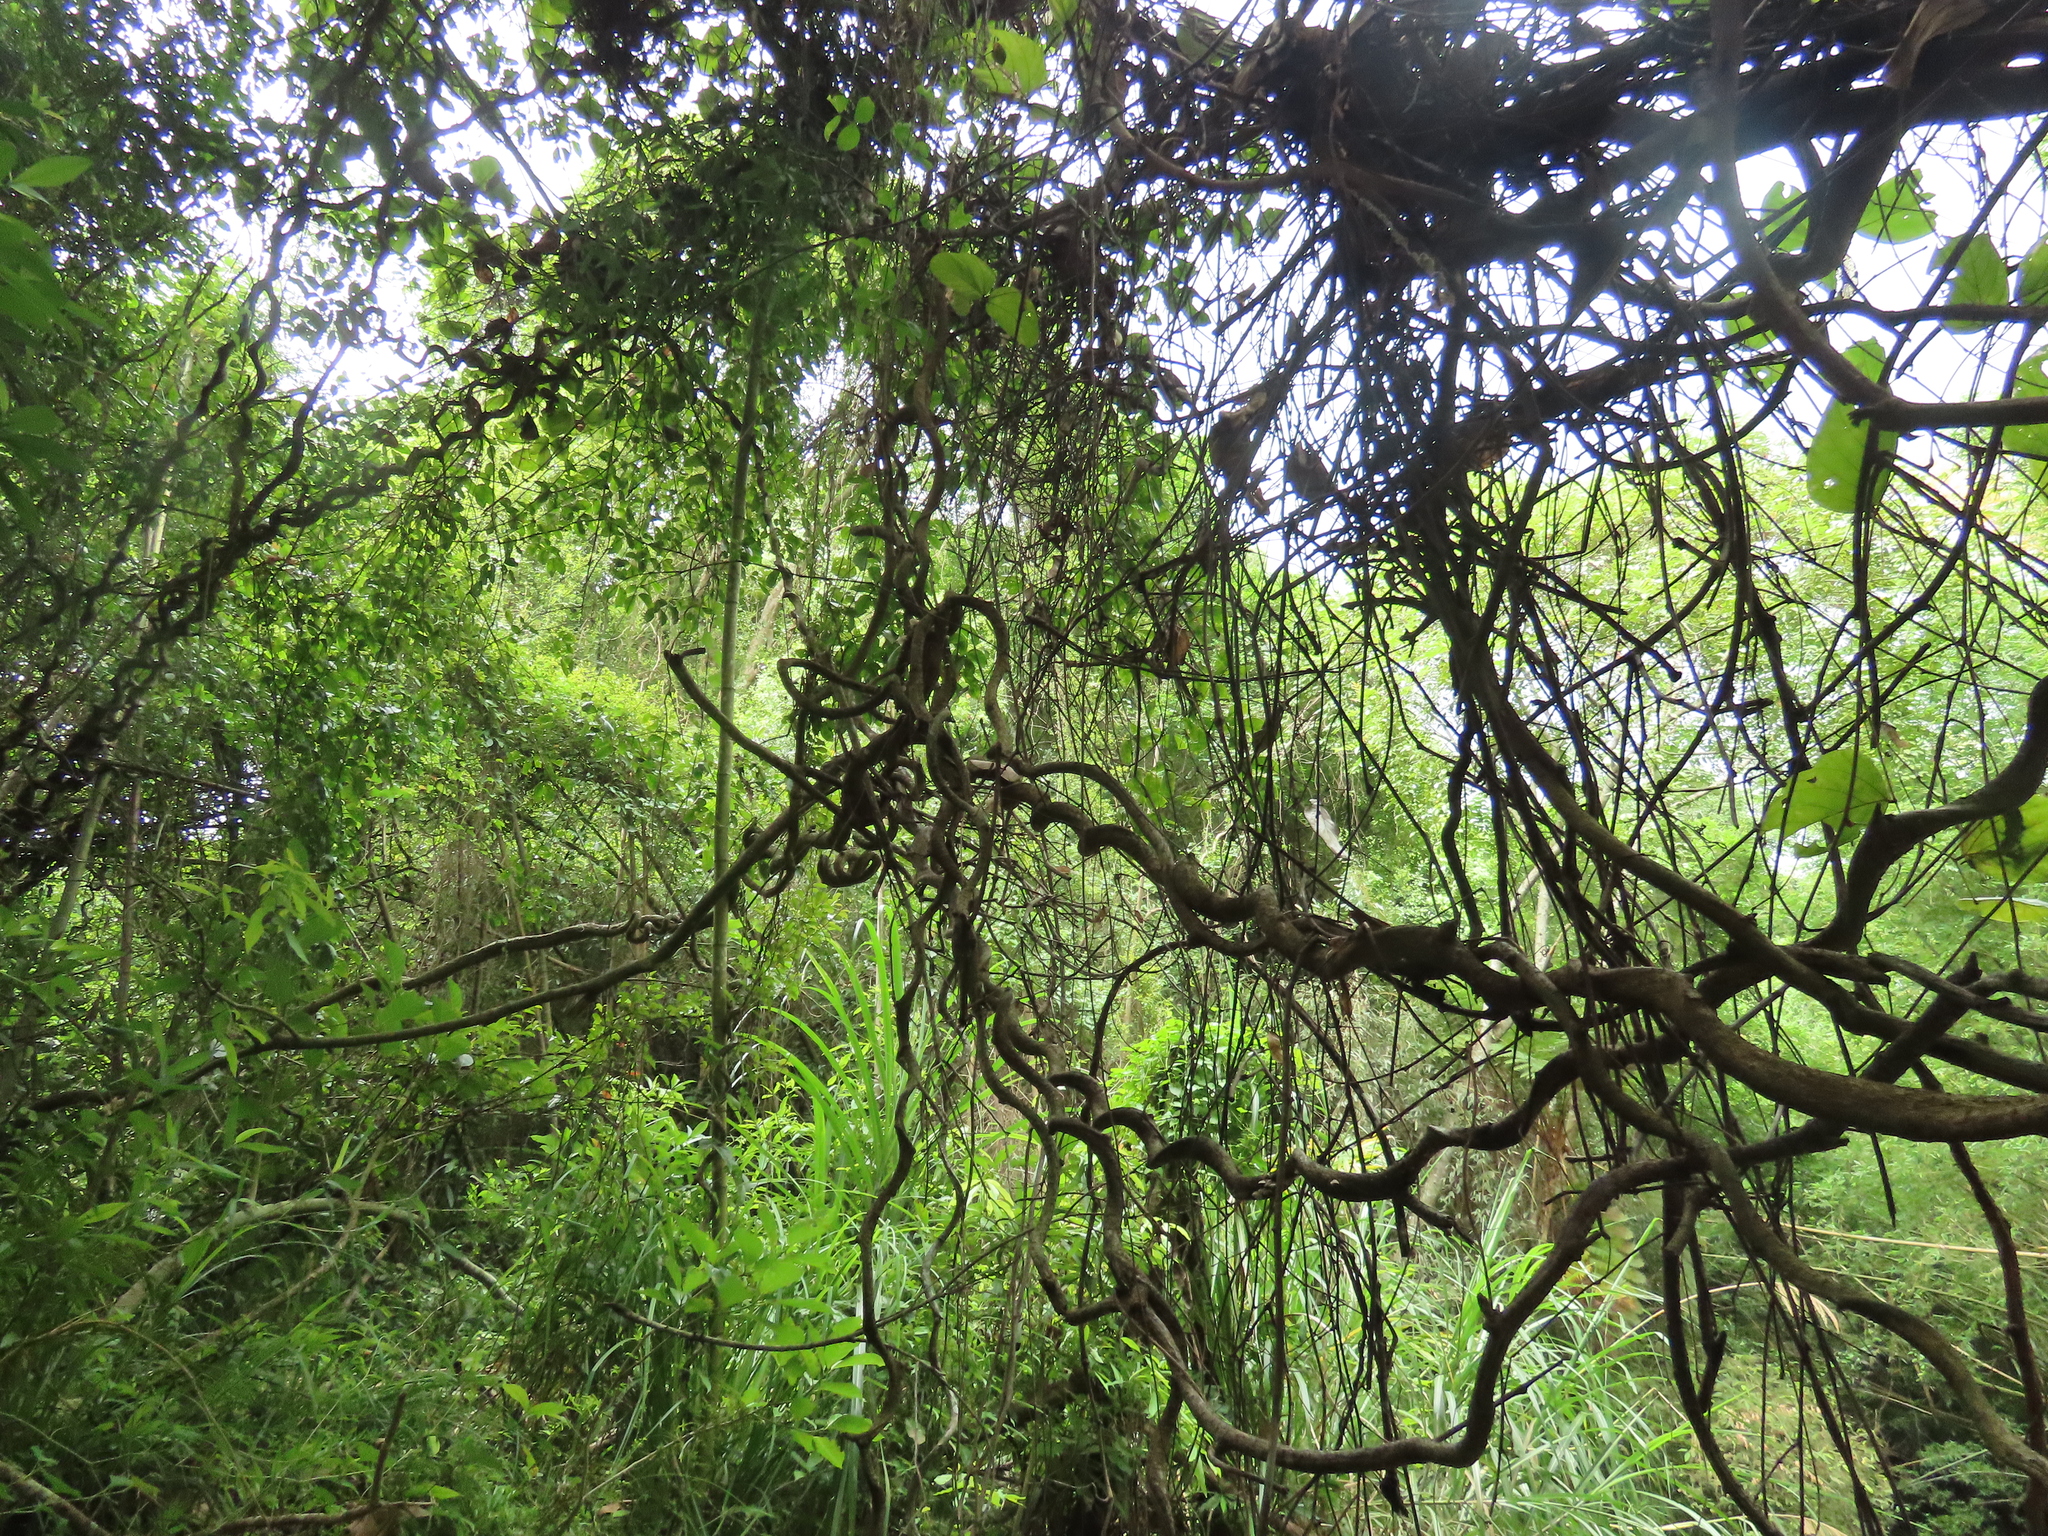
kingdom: Plantae
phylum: Tracheophyta
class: Magnoliopsida
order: Fabales
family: Fabaceae
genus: Mucuna
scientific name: Mucuna macrocarpa
